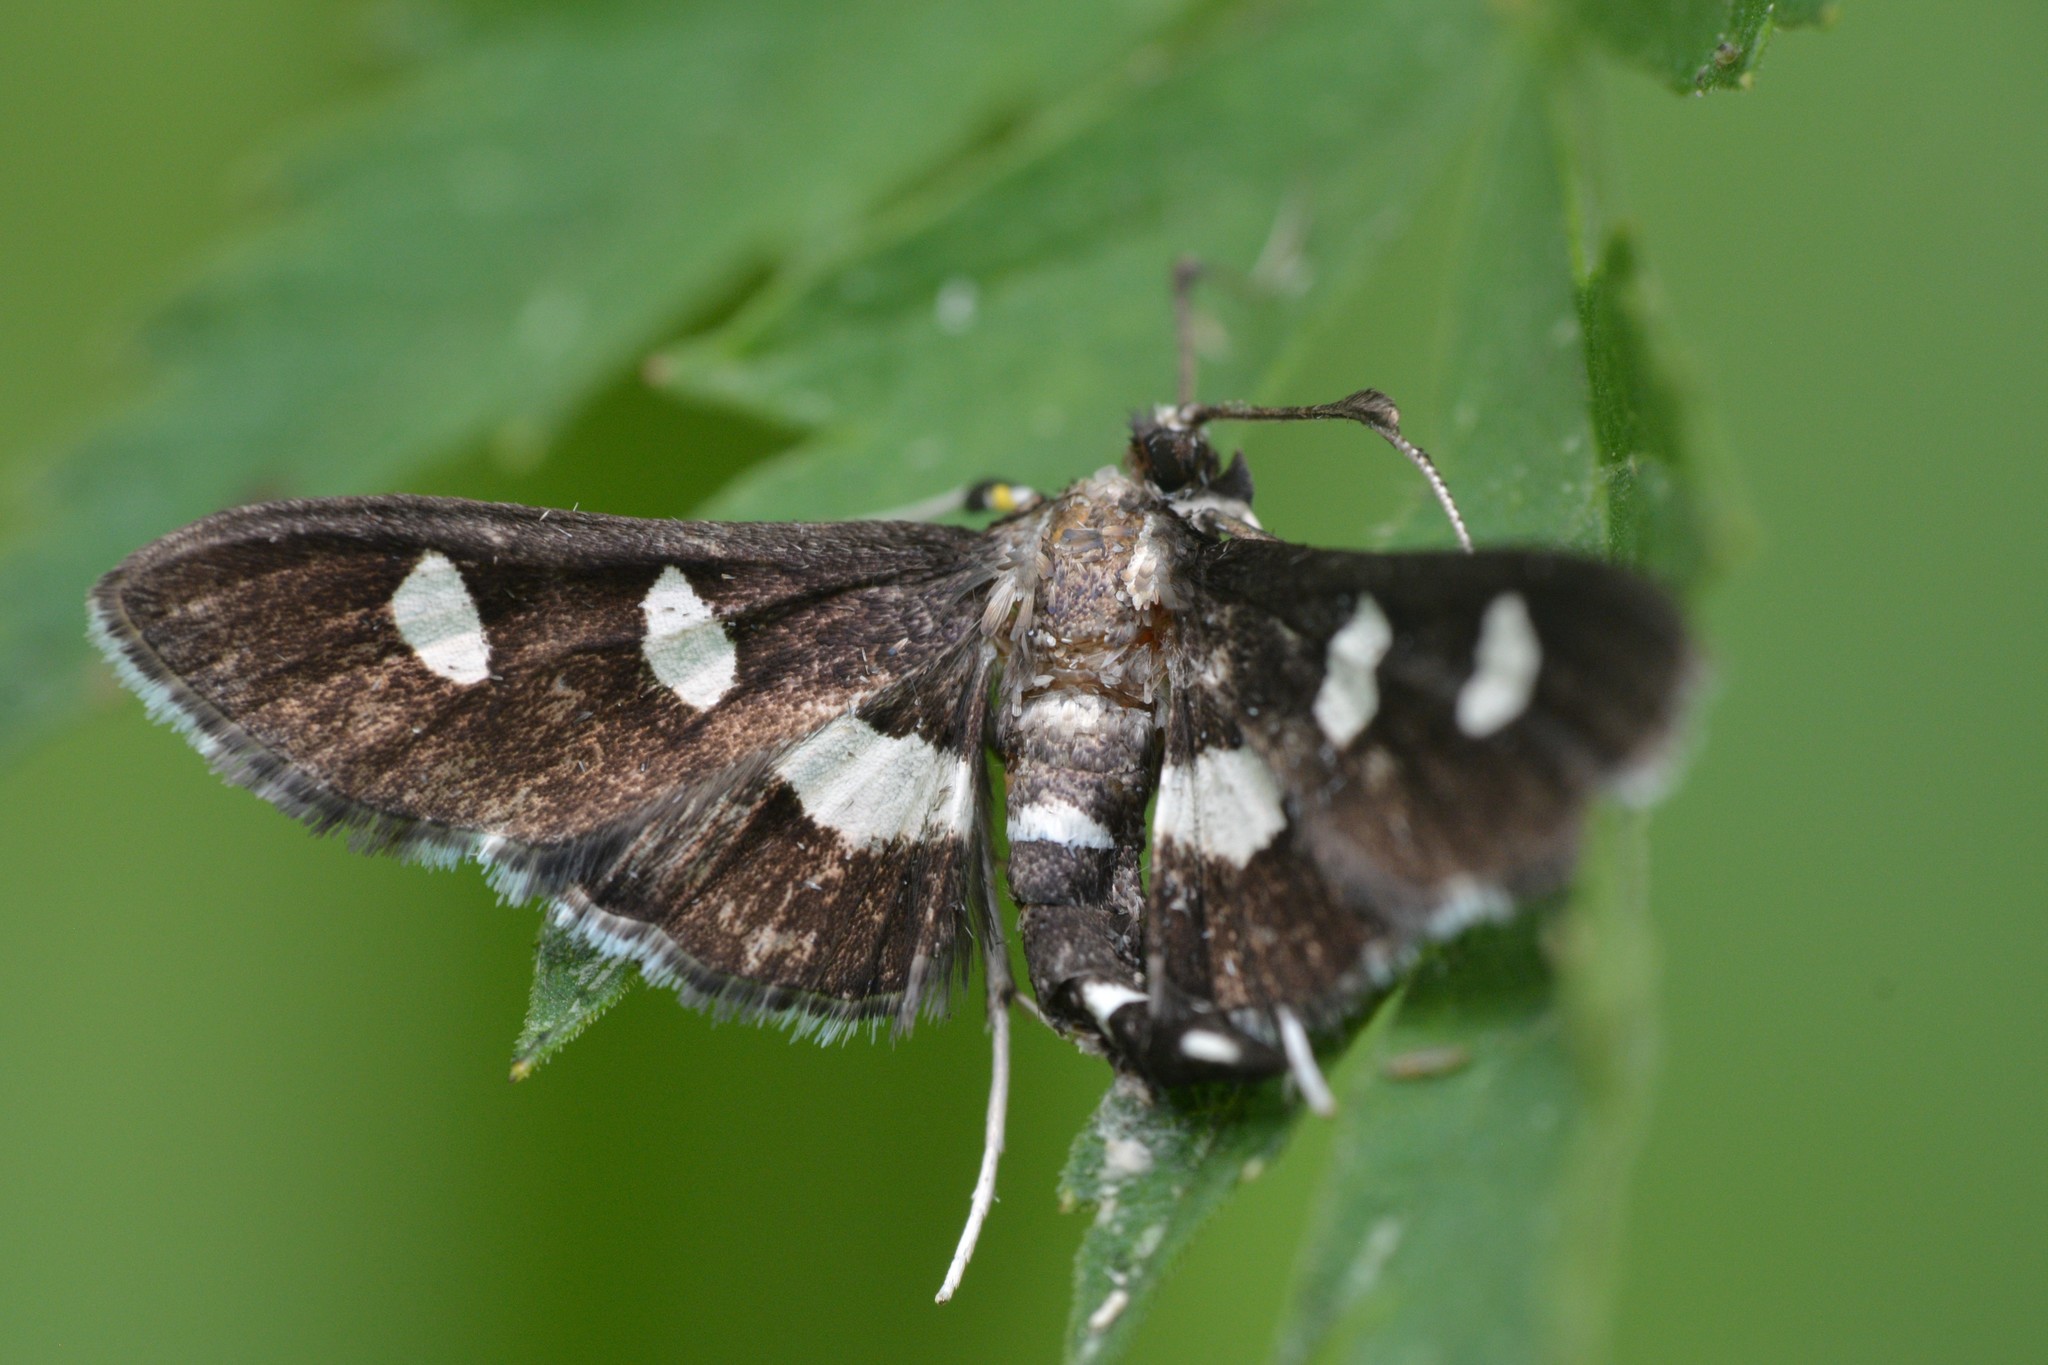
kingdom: Animalia
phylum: Arthropoda
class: Insecta
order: Lepidoptera
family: Crambidae
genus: Desmia
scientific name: Desmia
